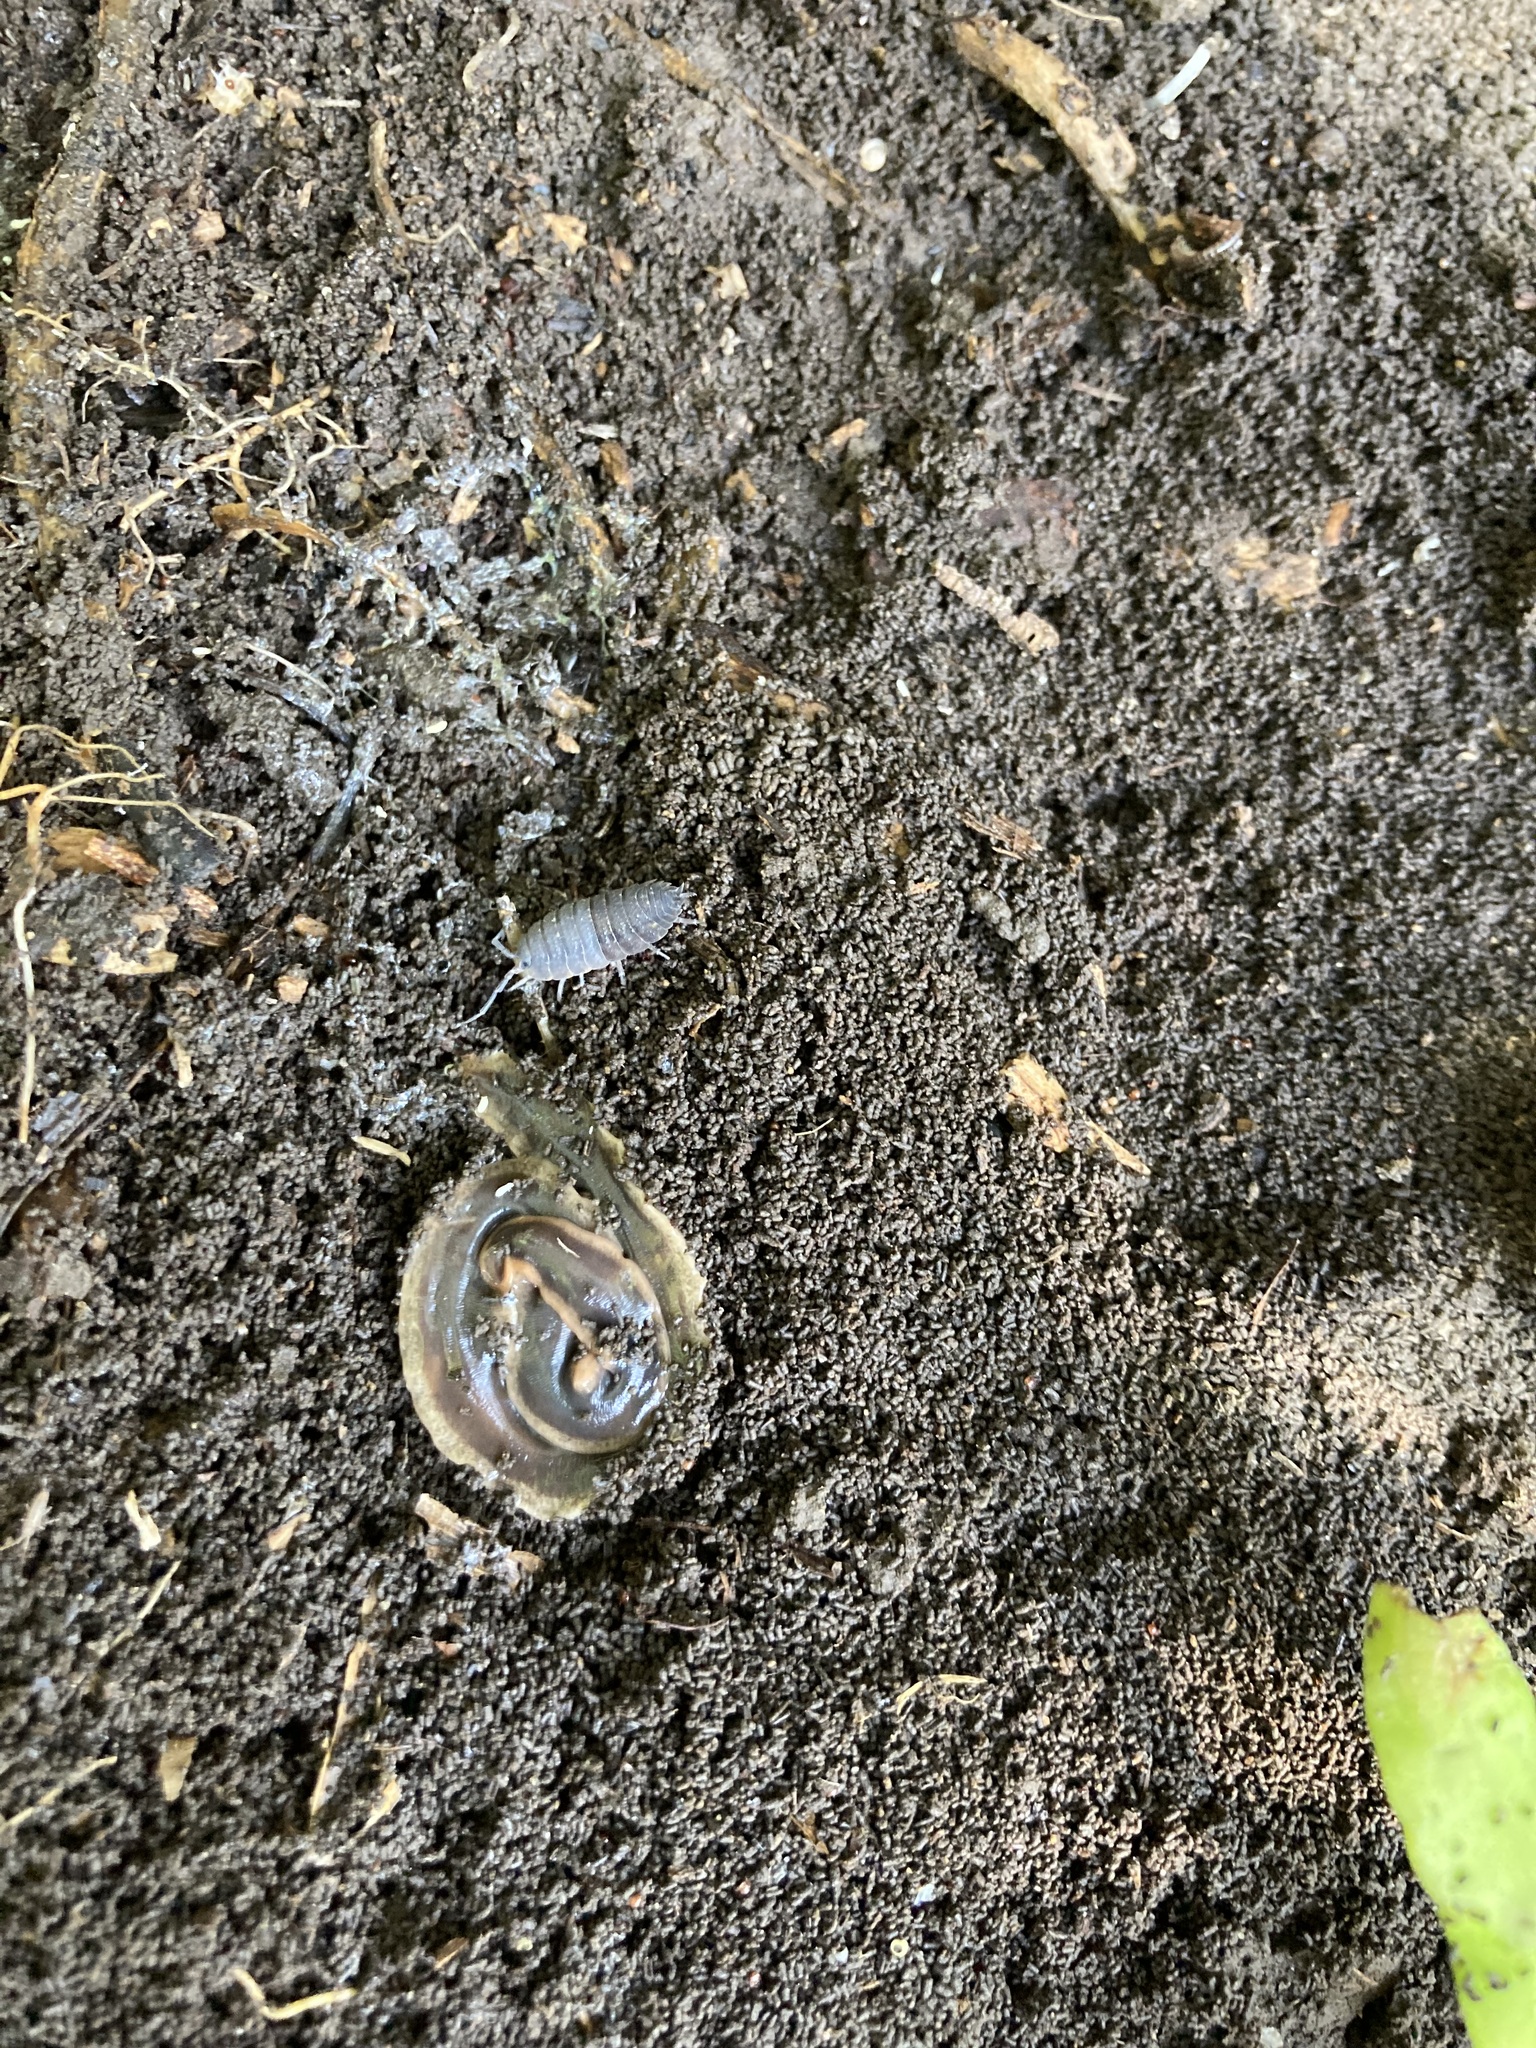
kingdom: Animalia
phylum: Platyhelminthes
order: Tricladida
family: Geoplanidae
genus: Arthurdendyus
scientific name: Arthurdendyus triangulatus
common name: New zealand flatworm
